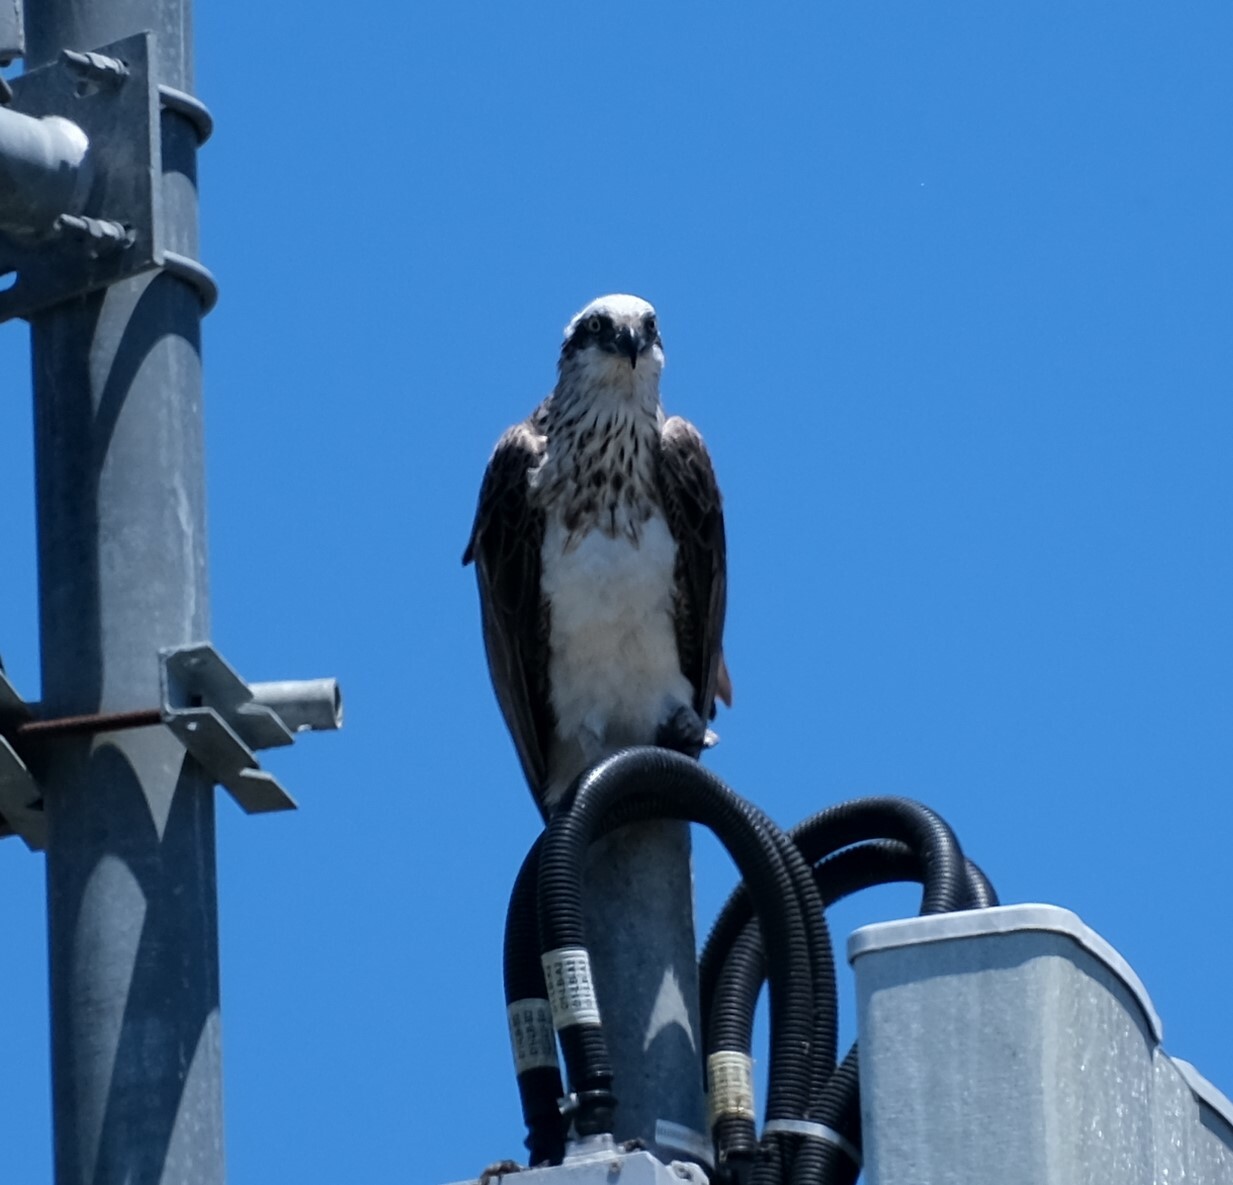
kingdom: Animalia
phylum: Chordata
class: Aves
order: Accipitriformes
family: Pandionidae
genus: Pandion
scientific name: Pandion cristatus
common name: Eastern osprey
